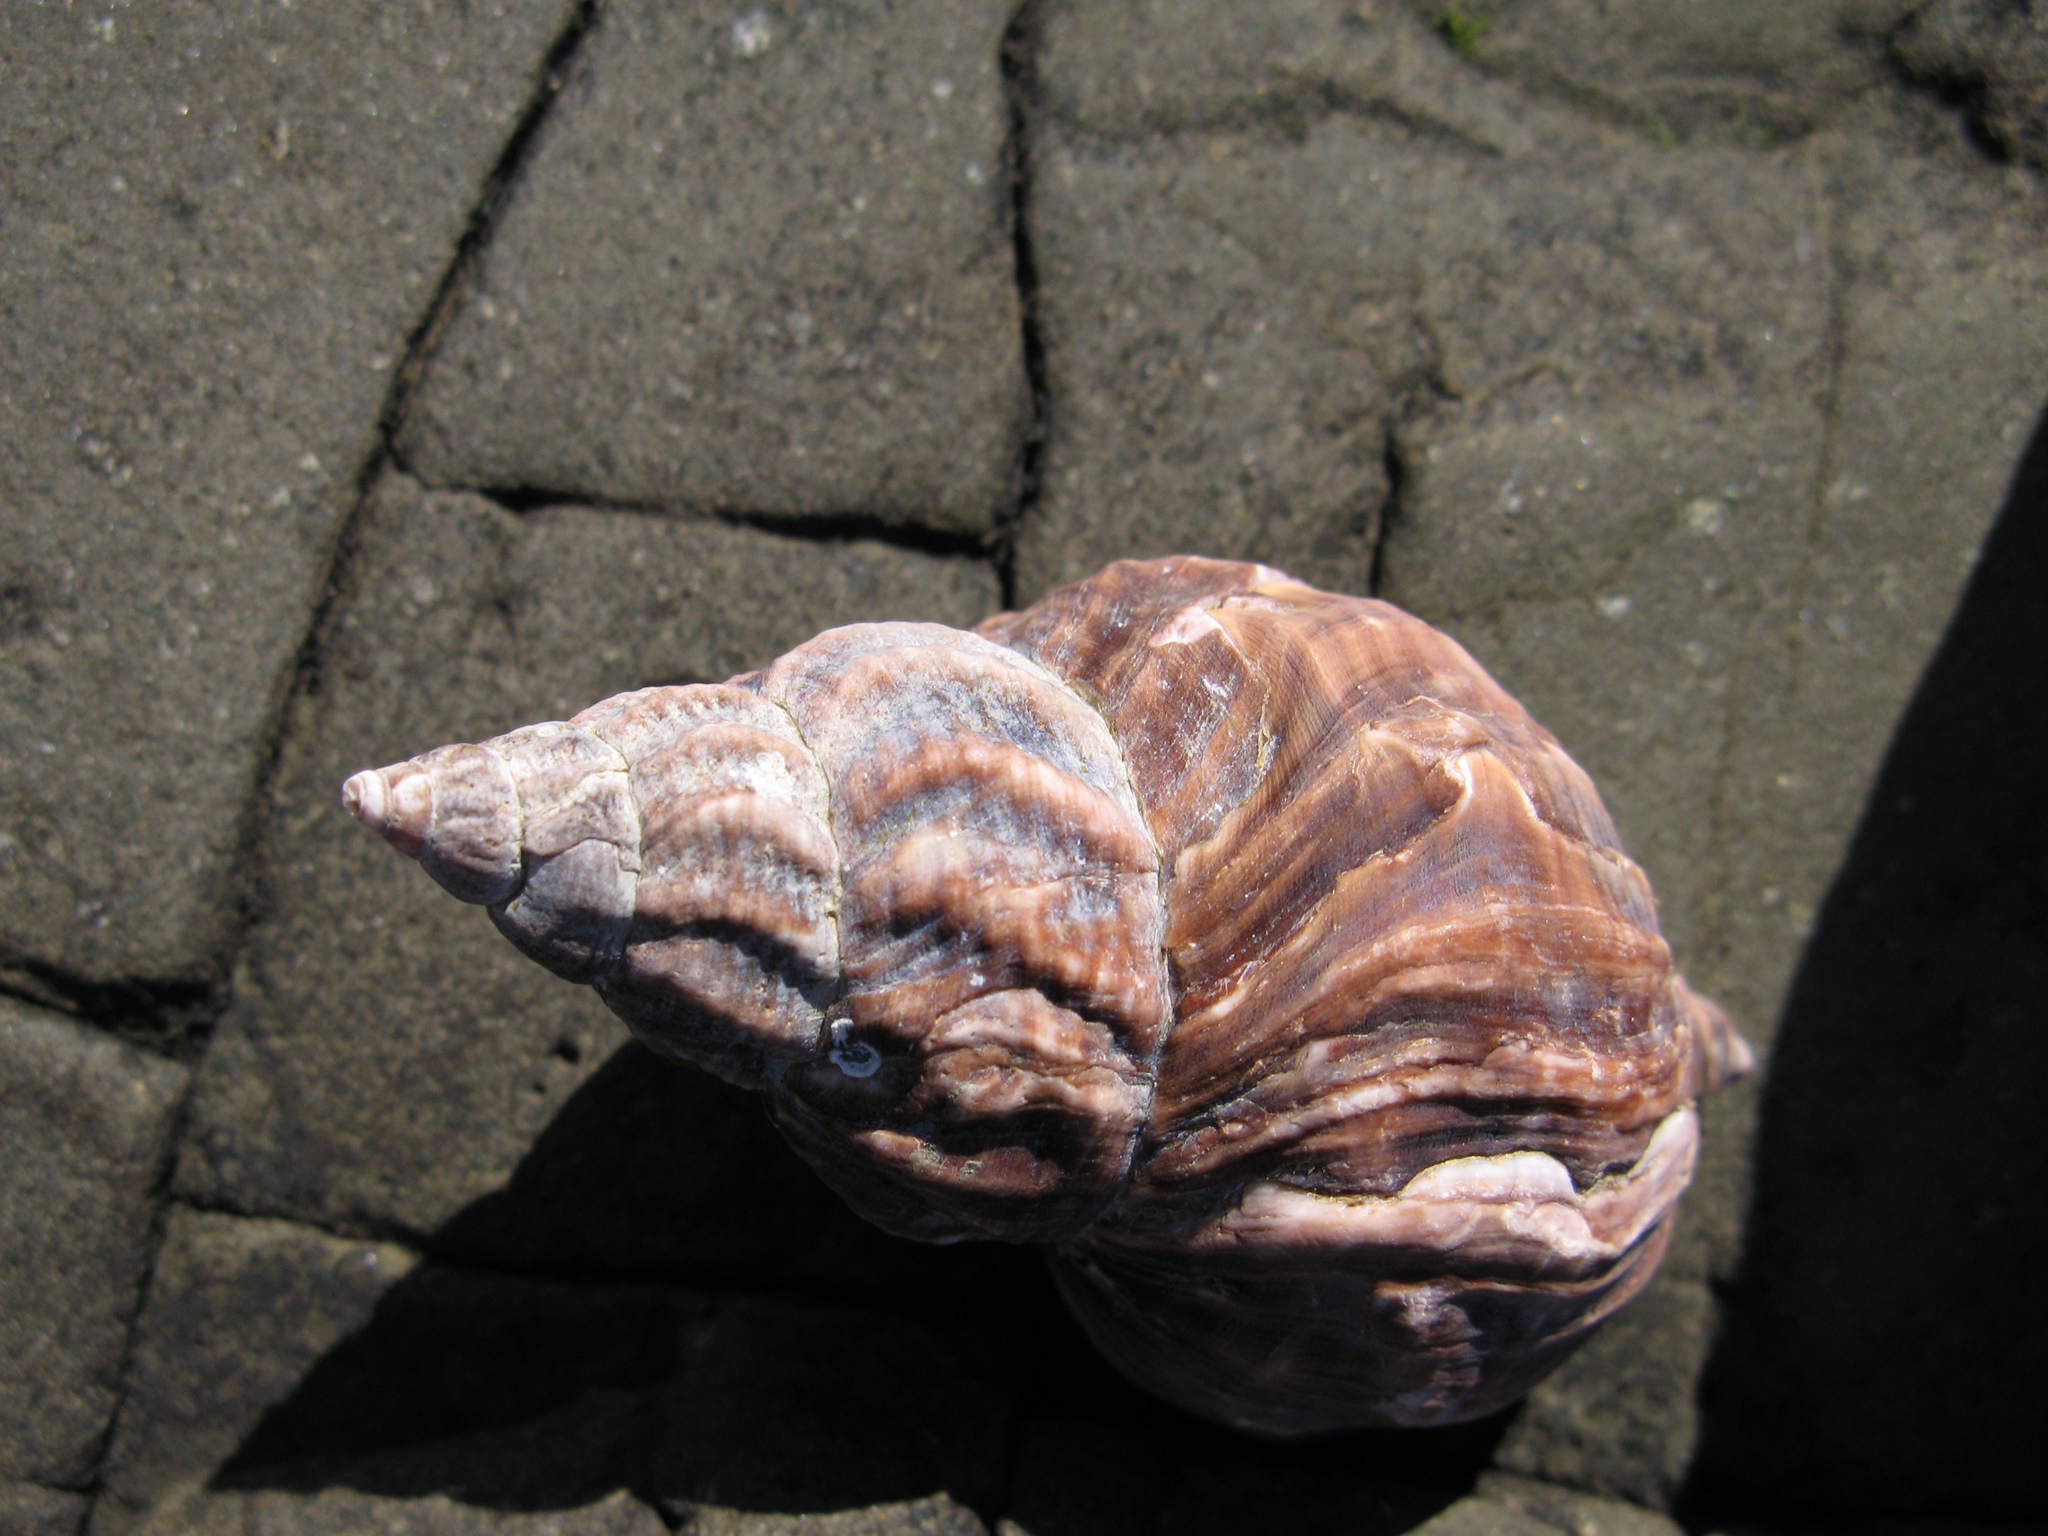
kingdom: Animalia
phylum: Mollusca
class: Gastropoda
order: Neogastropoda
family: Buccinidae
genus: Buccinum
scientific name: Buccinum undatum
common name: Common whelk
